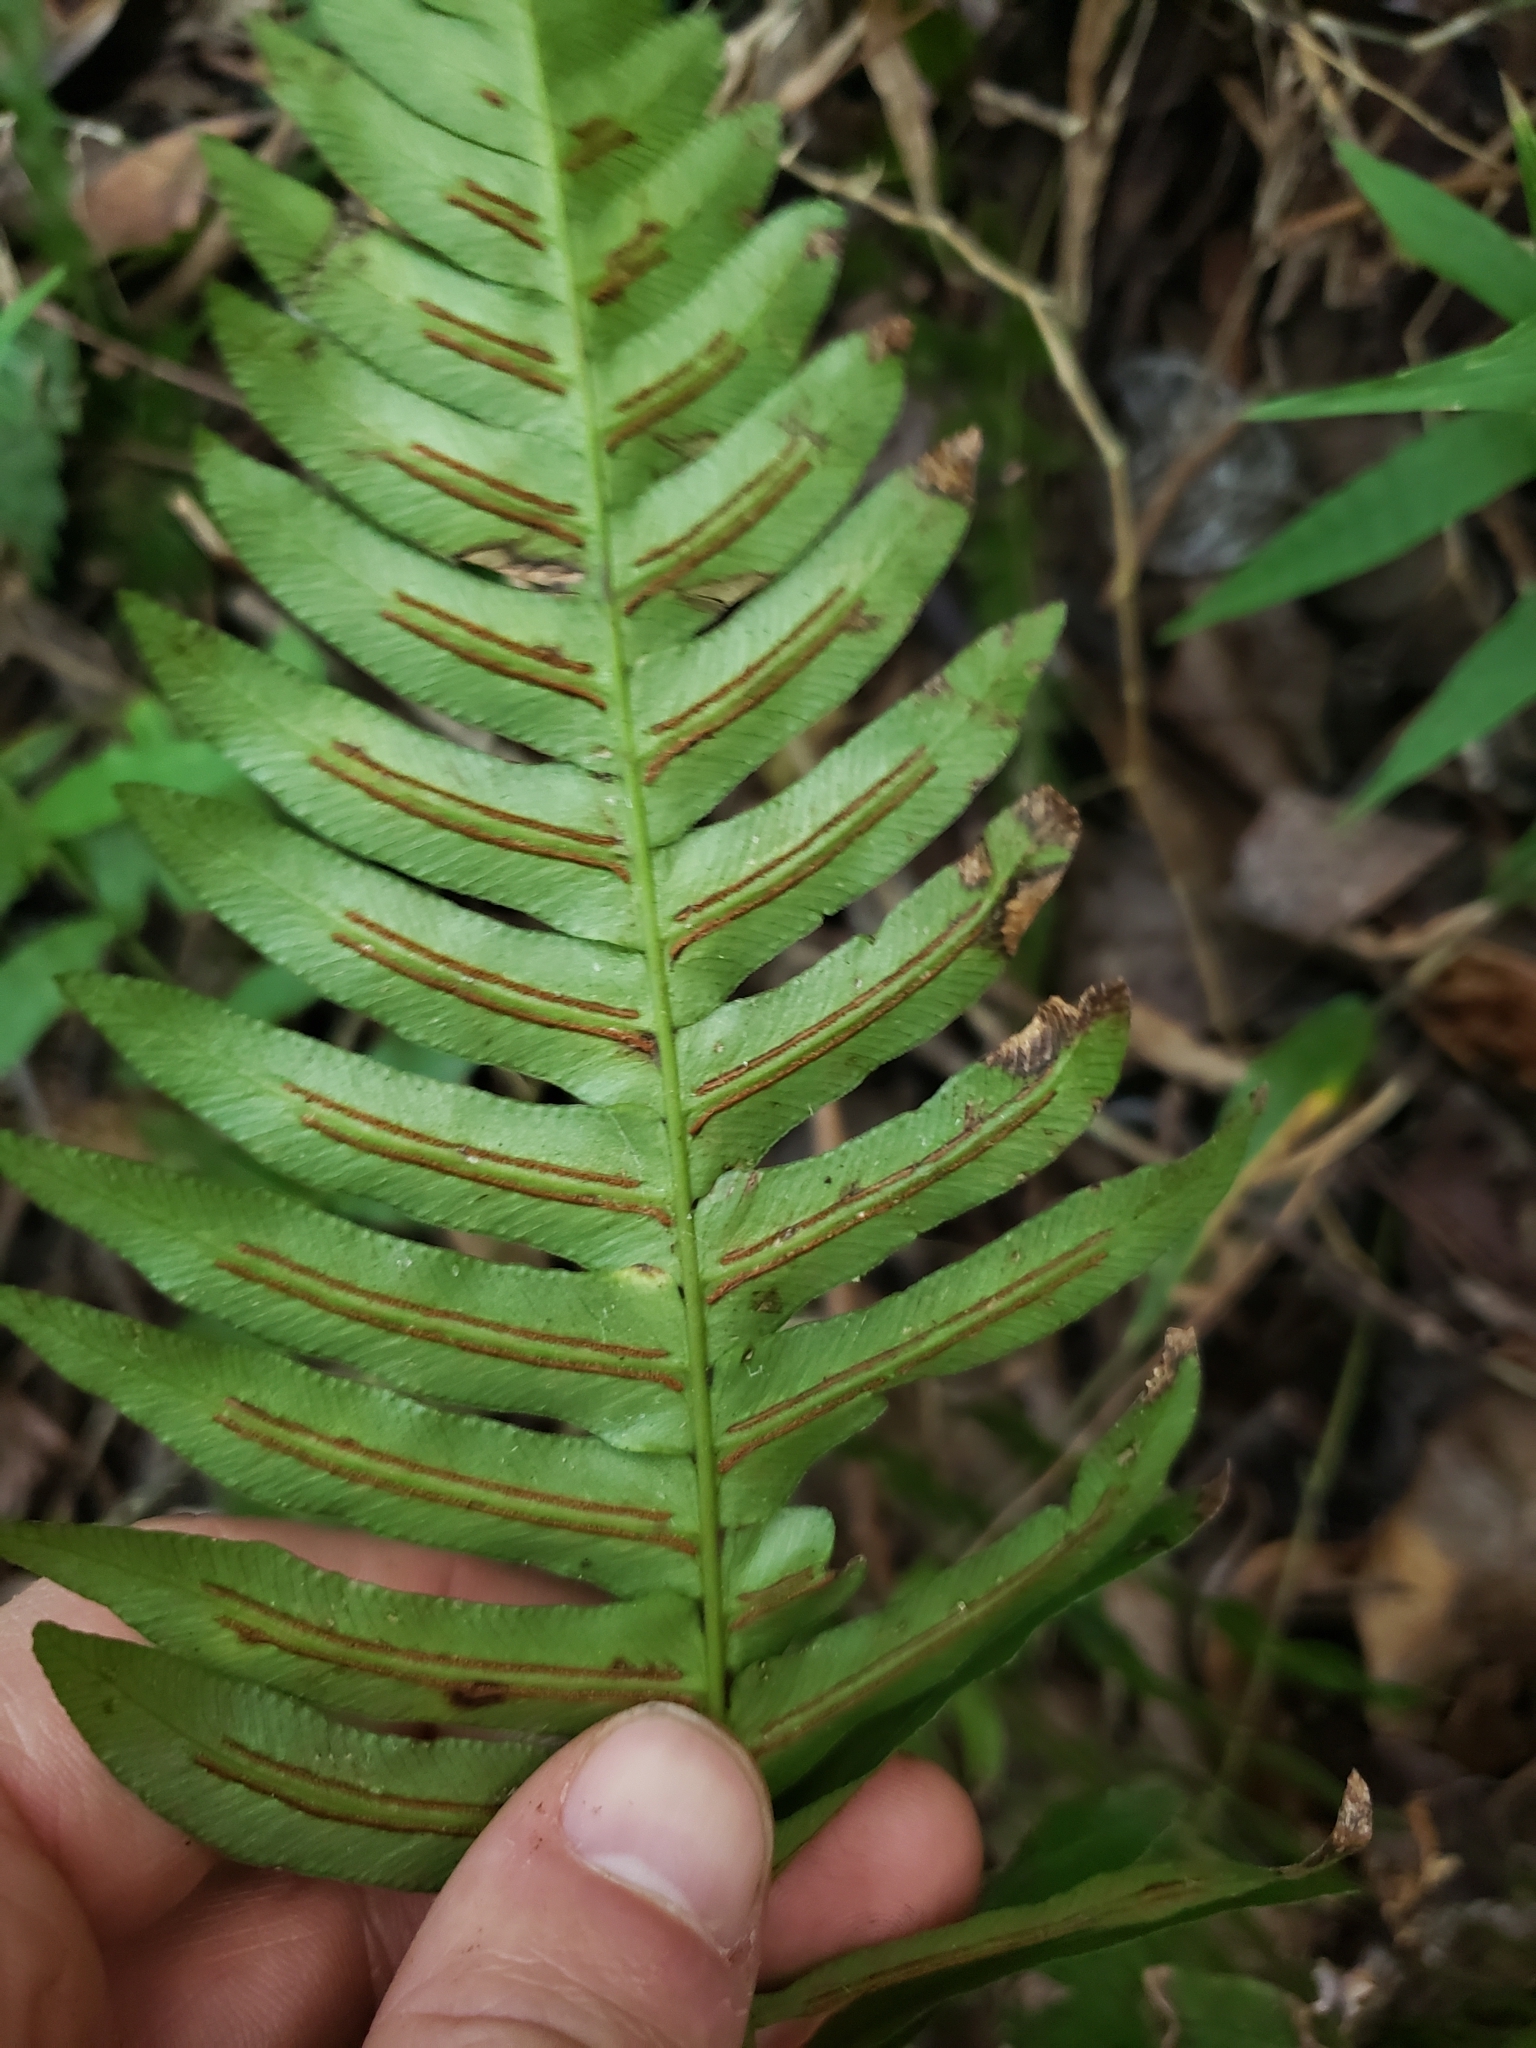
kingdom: Plantae
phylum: Tracheophyta
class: Polypodiopsida
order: Polypodiales
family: Blechnaceae
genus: Blechnum
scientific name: Blechnum appendiculatum
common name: Palm fern
